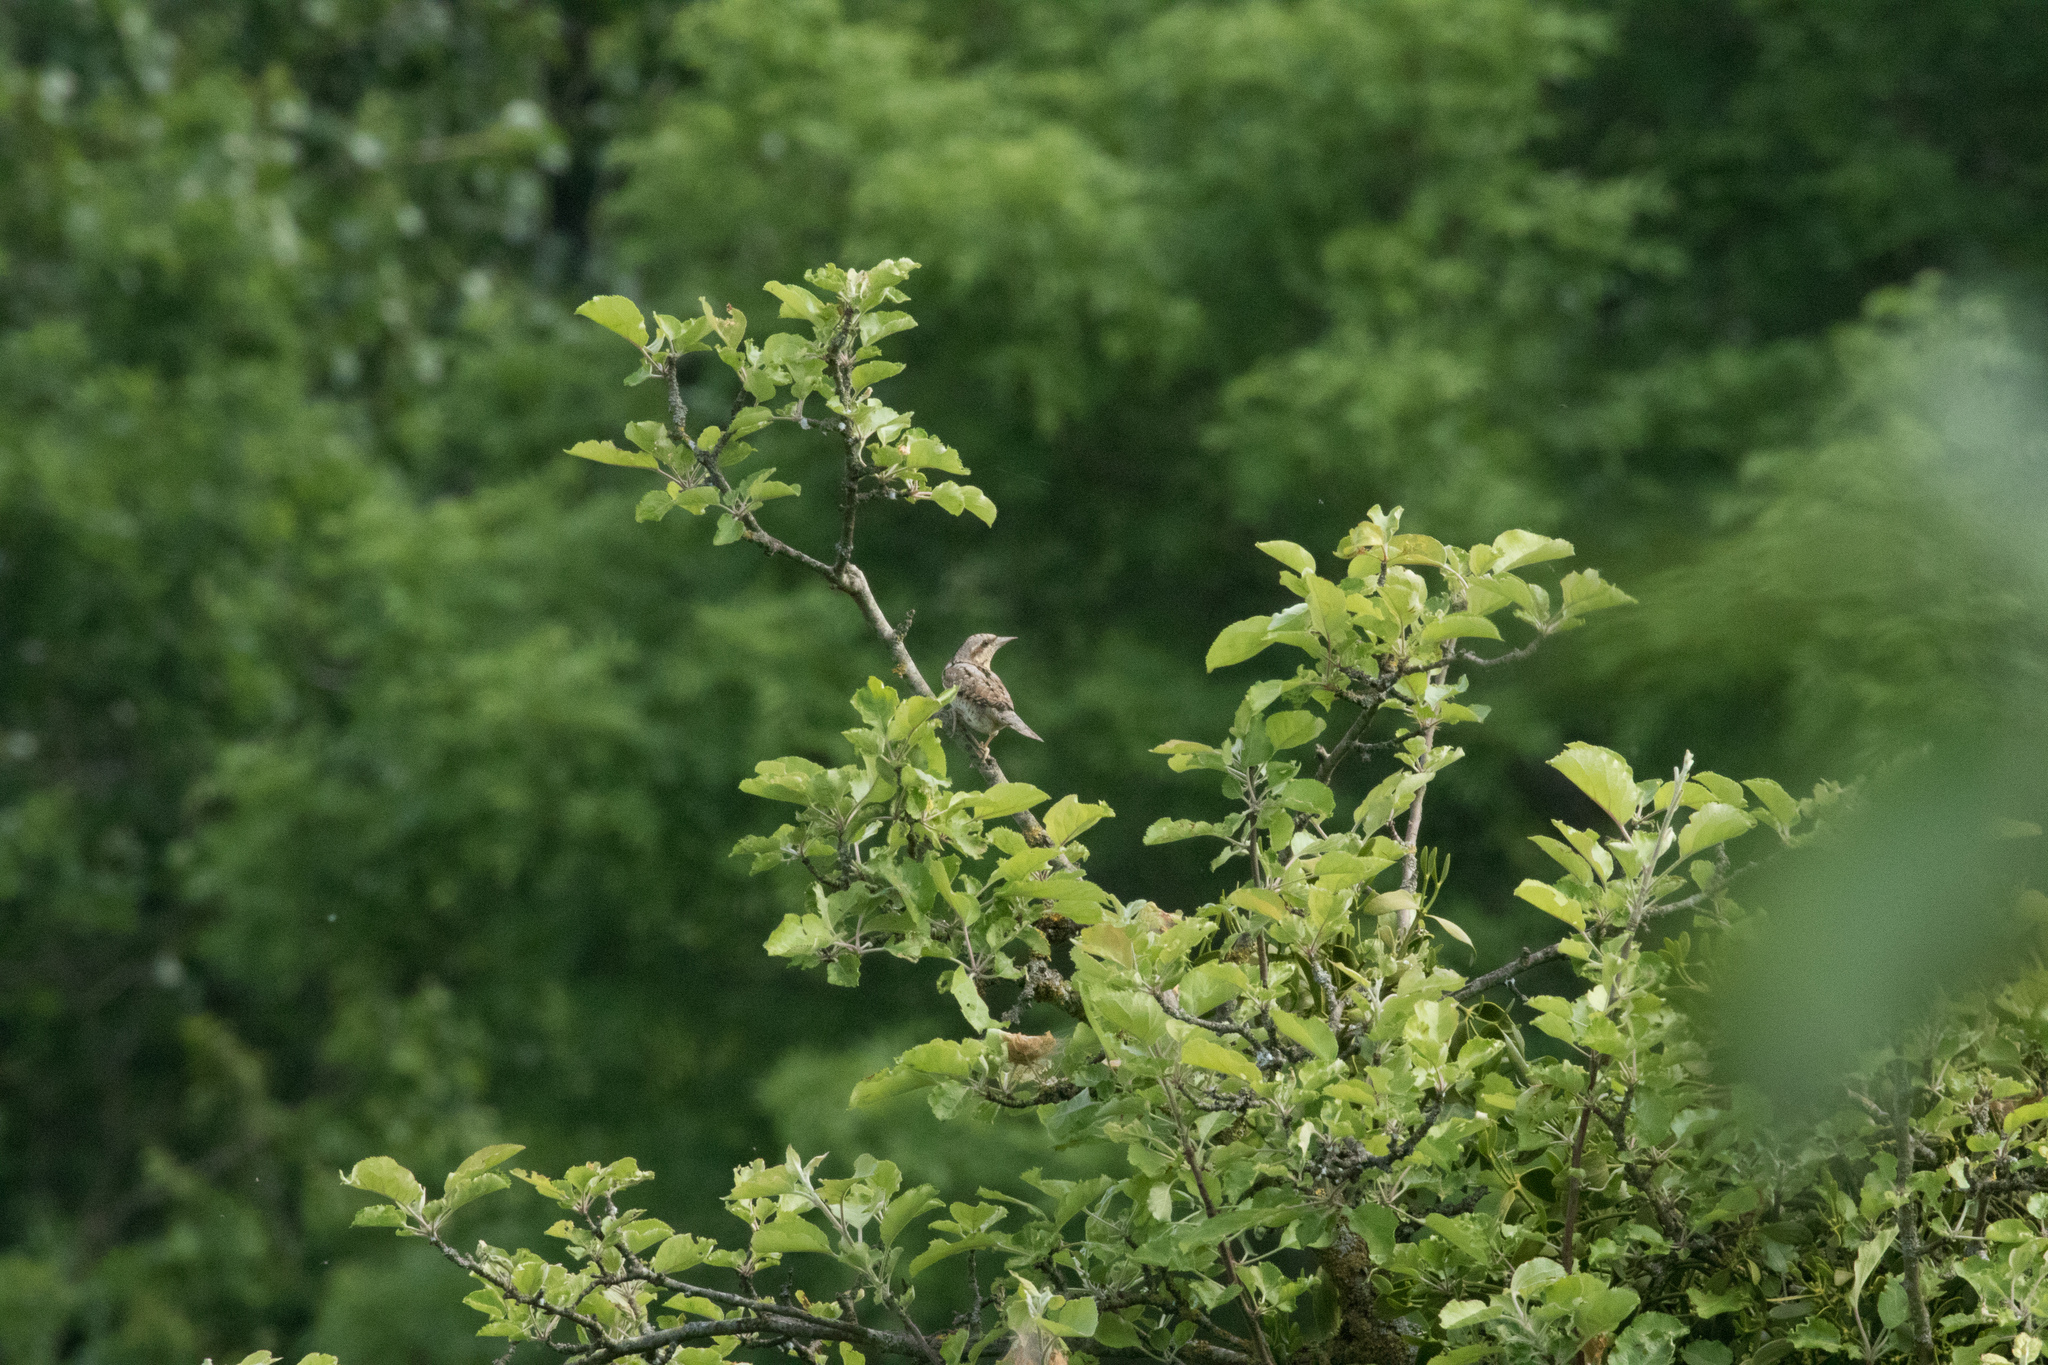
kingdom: Animalia
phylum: Chordata
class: Aves
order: Piciformes
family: Picidae
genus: Jynx
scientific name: Jynx torquilla
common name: Eurasian wryneck
